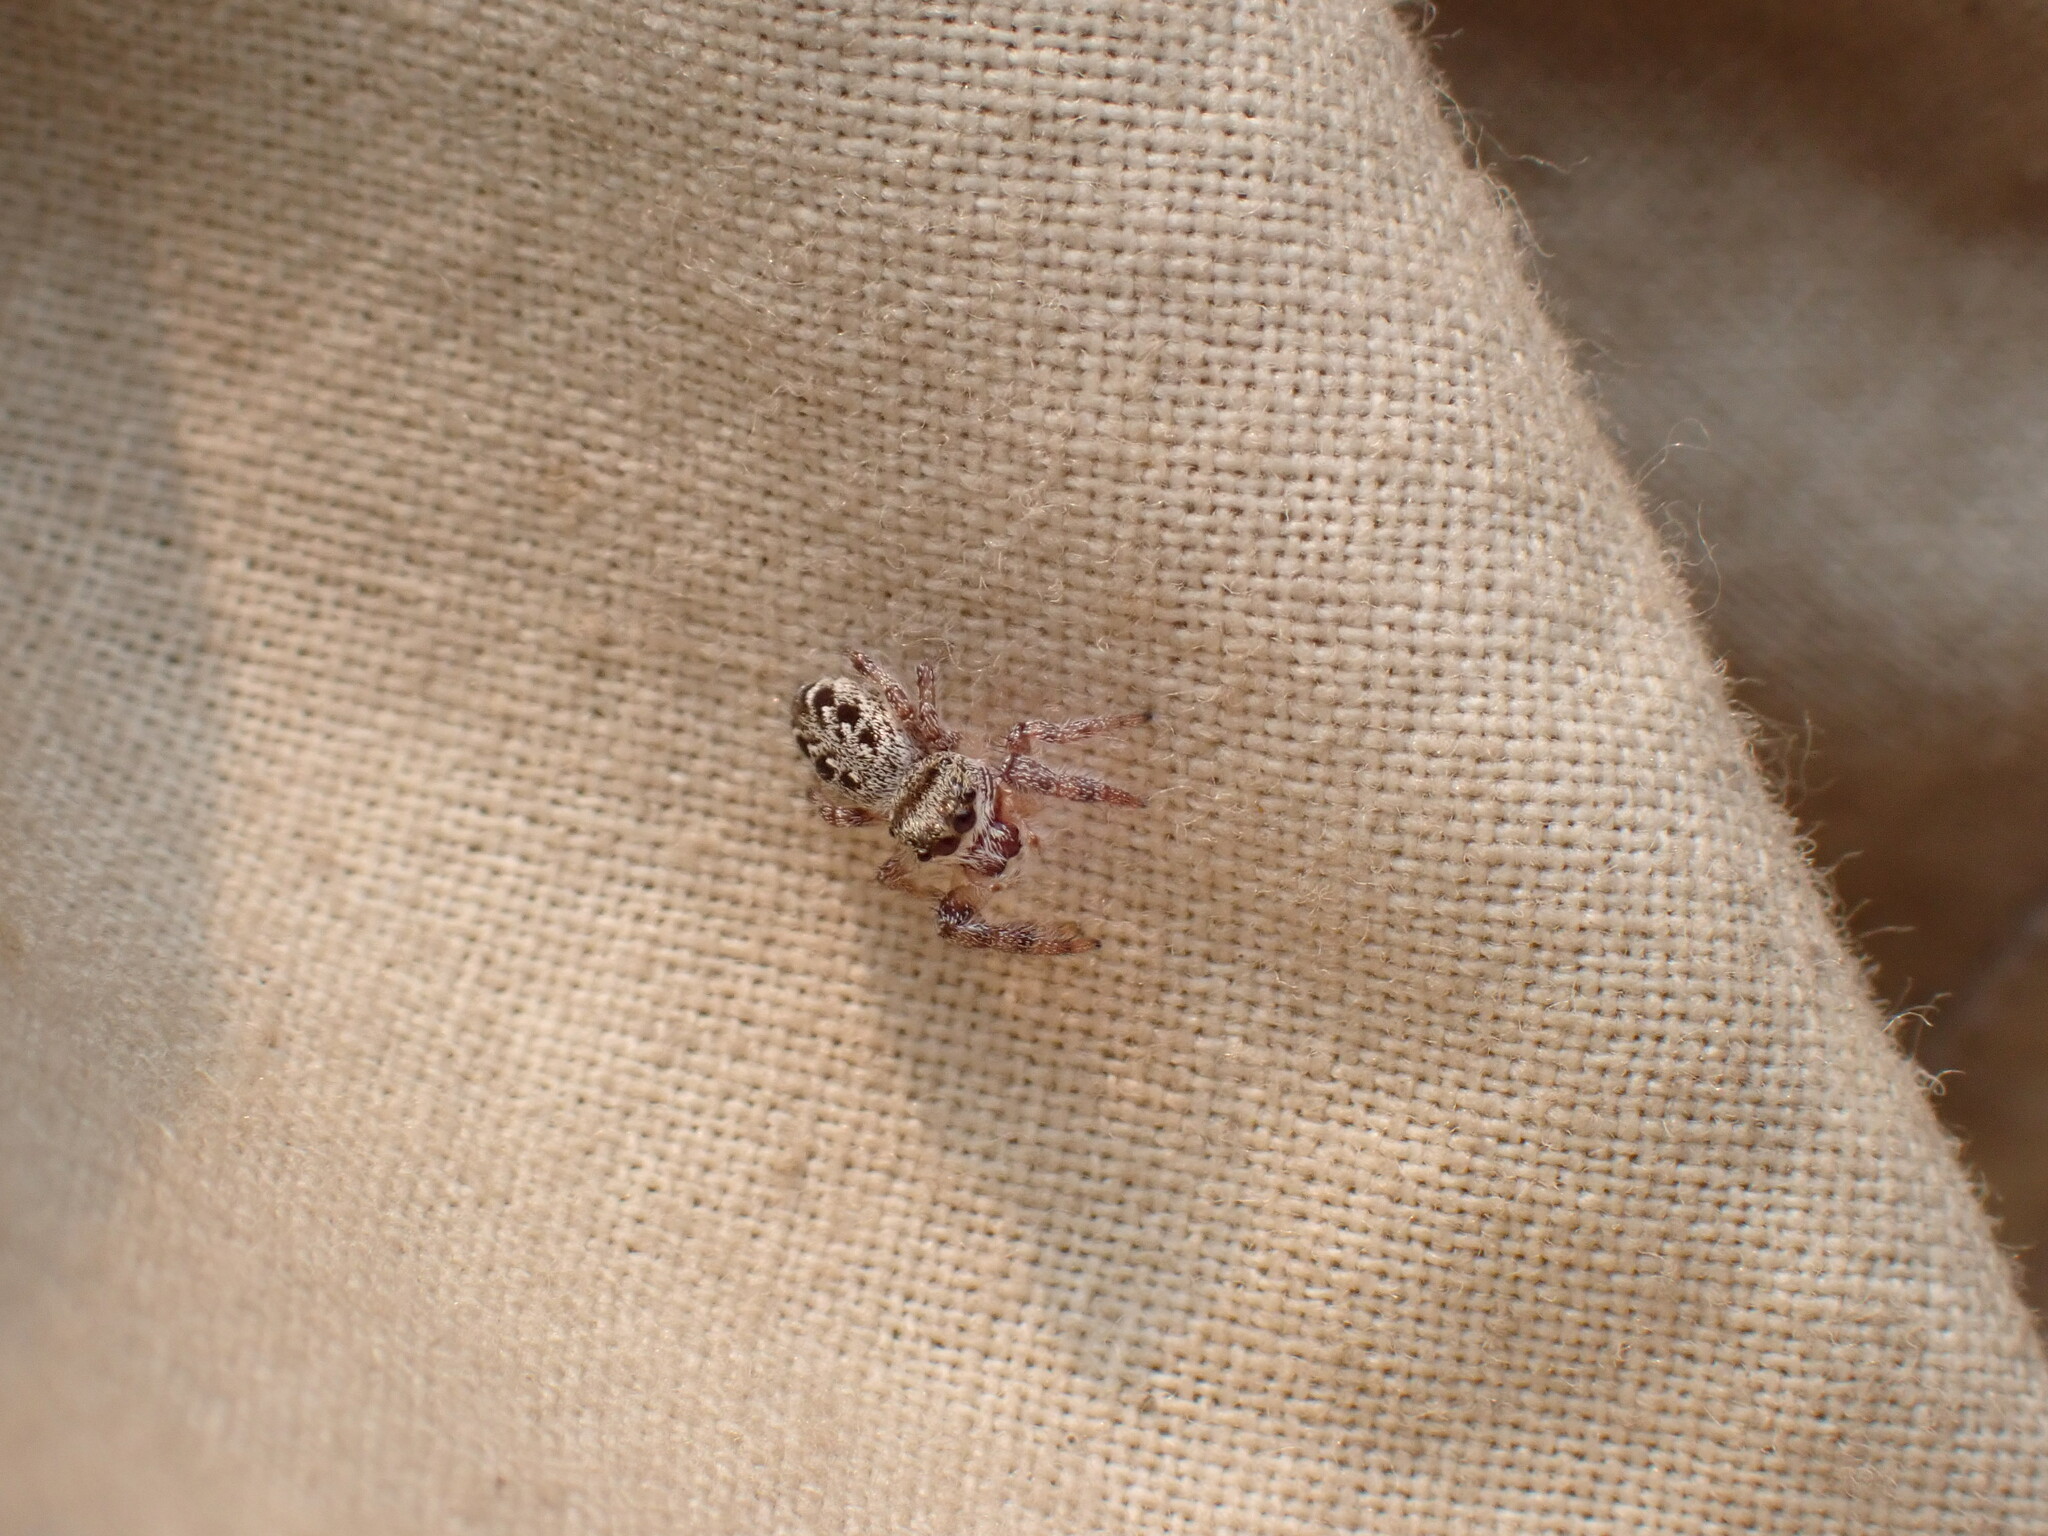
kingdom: Animalia
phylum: Arthropoda
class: Arachnida
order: Araneae
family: Salticidae
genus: Eris
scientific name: Eris militaris
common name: Bronze jumper
